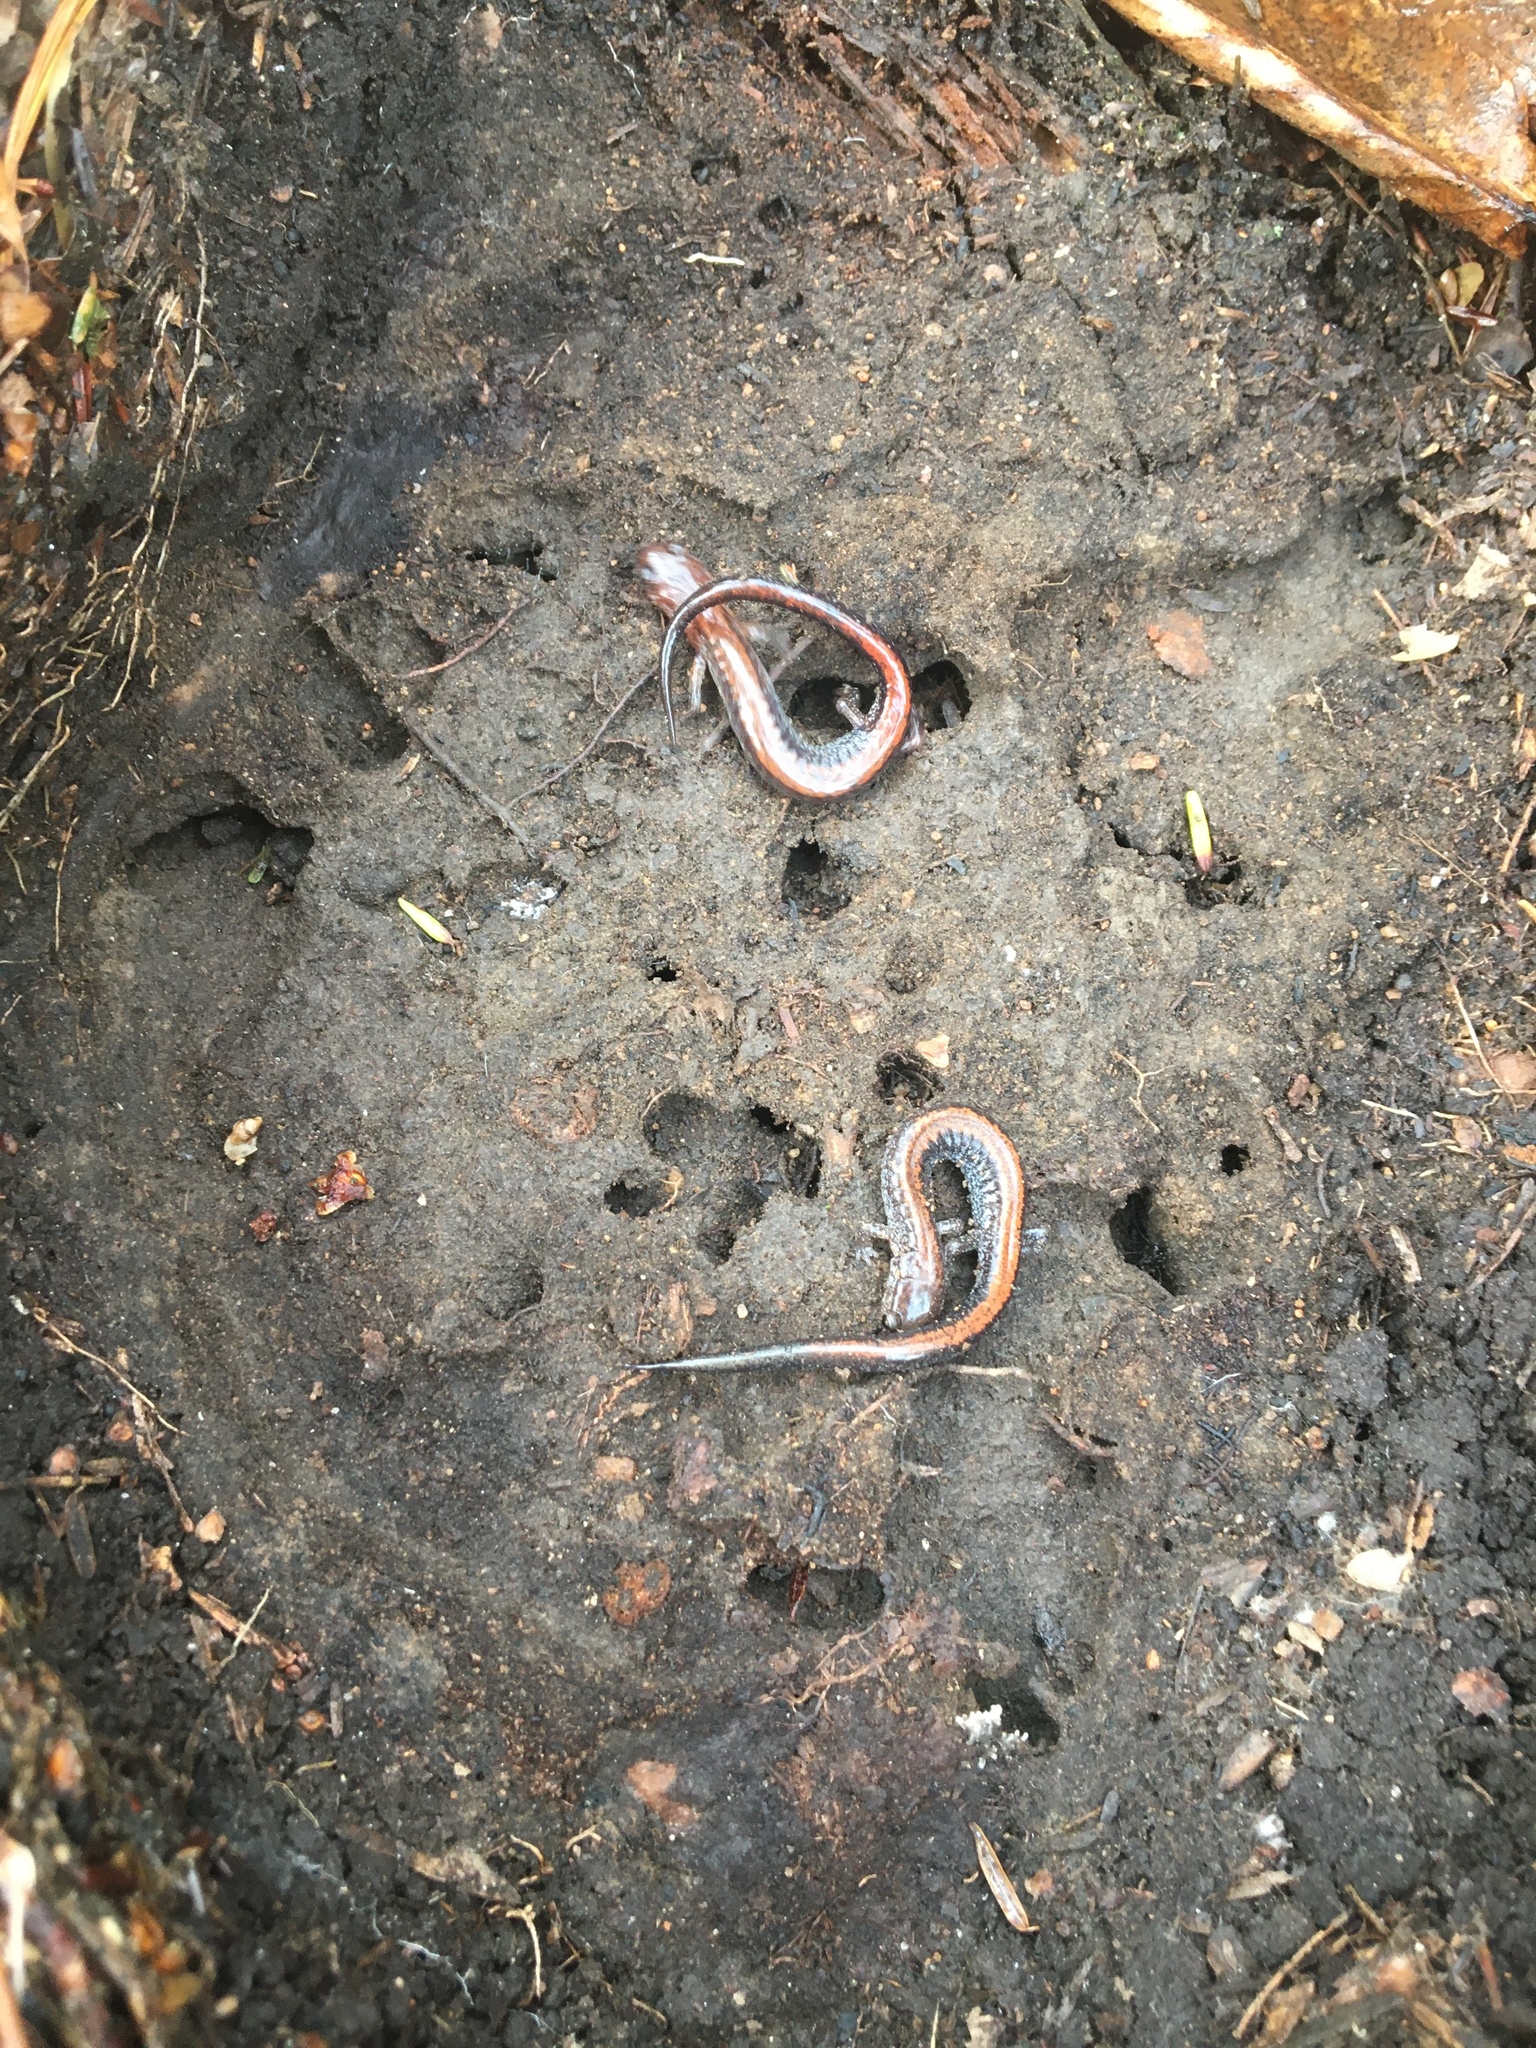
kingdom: Animalia
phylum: Chordata
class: Amphibia
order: Caudata
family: Plethodontidae
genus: Plethodon
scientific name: Plethodon cinereus
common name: Redback salamander
